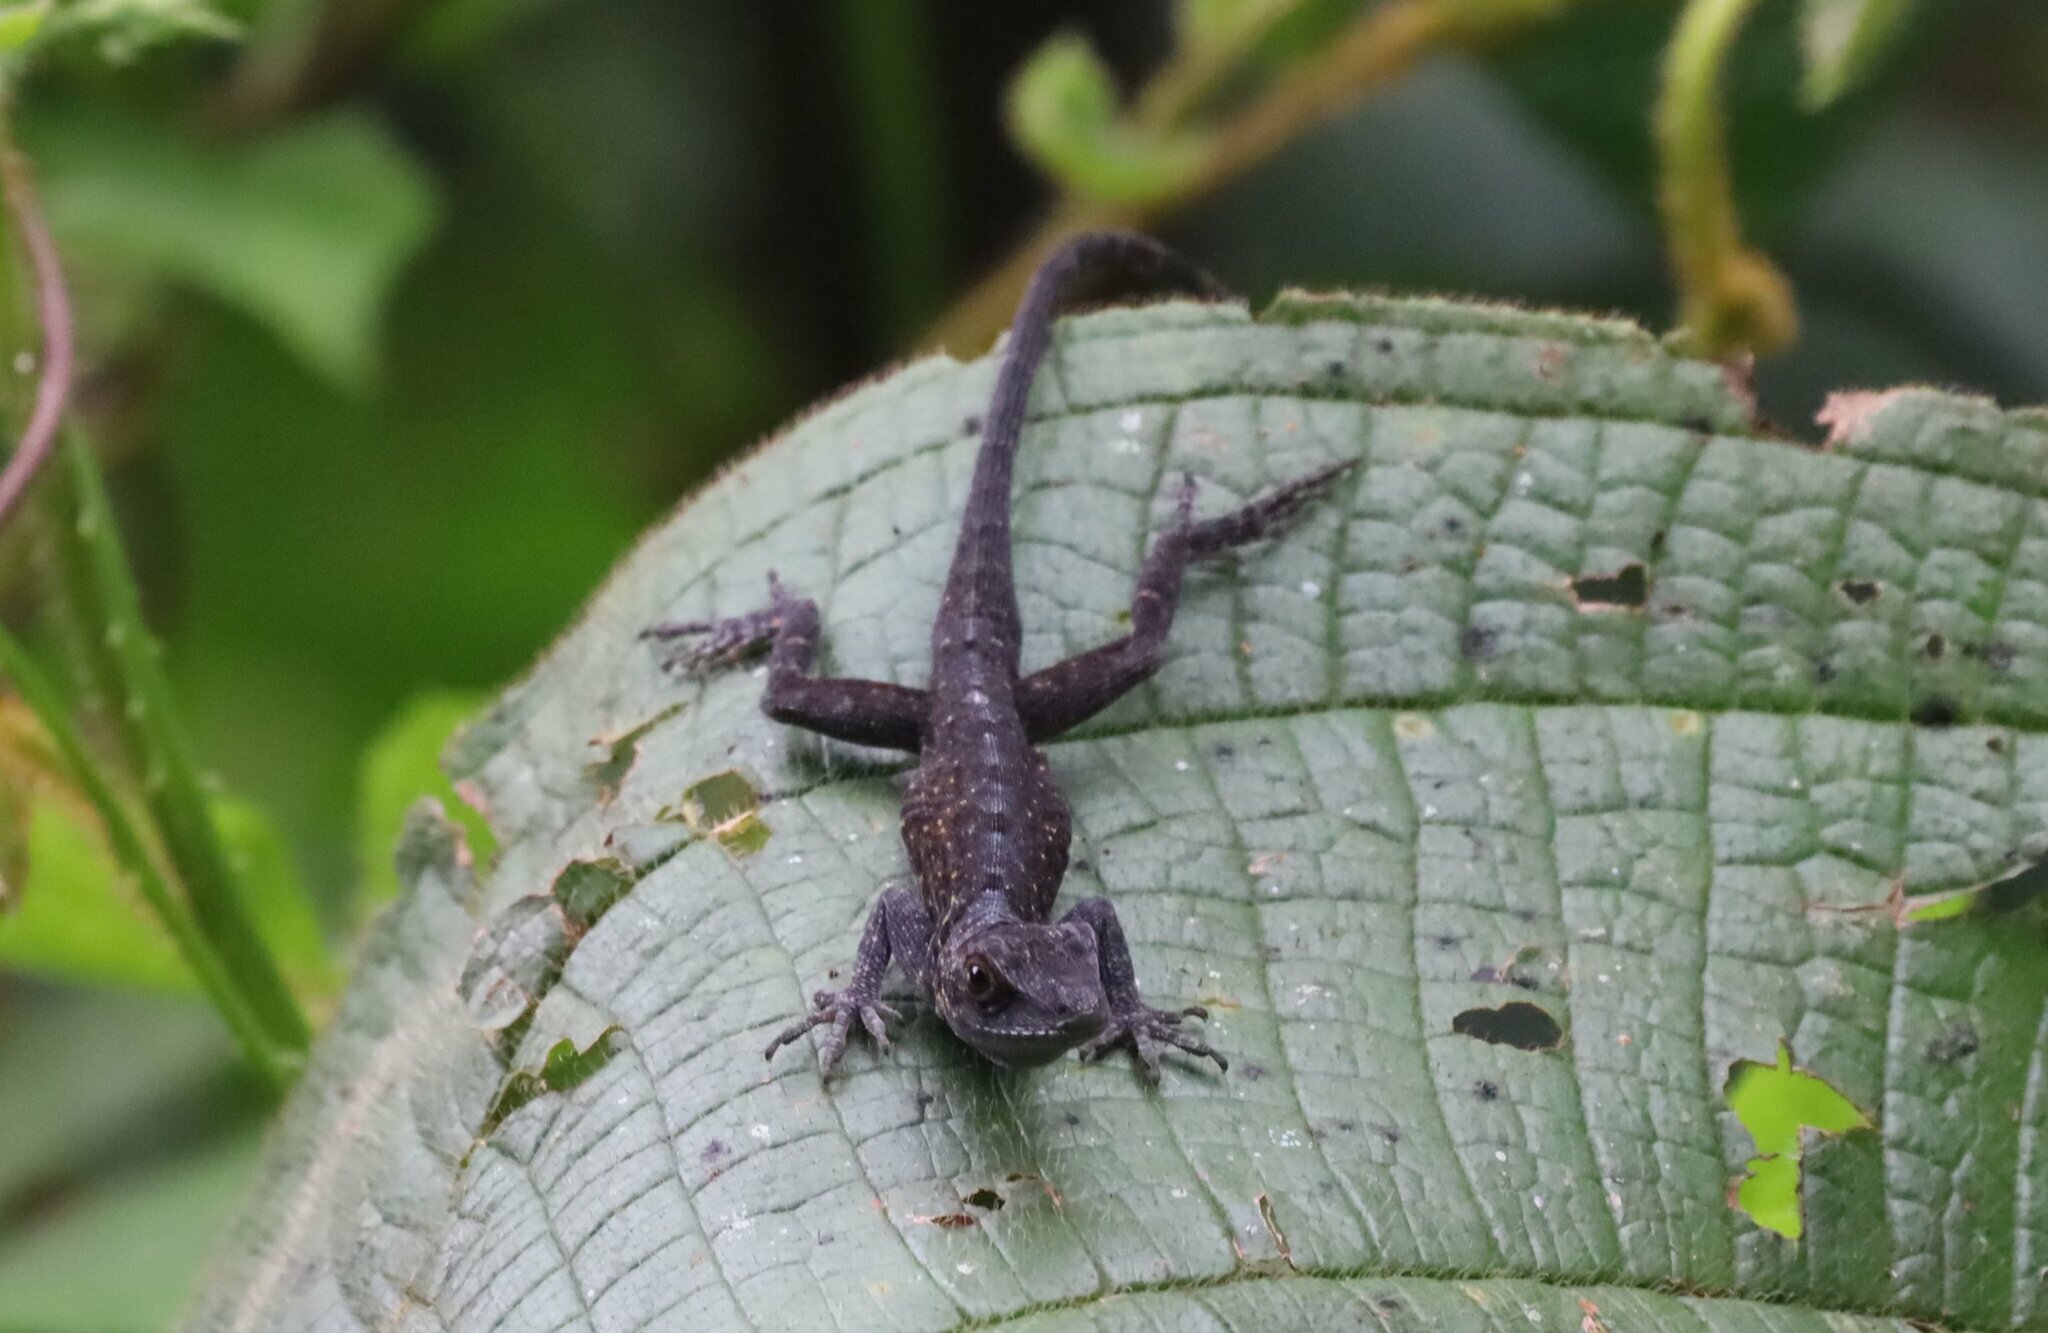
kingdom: Animalia
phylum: Chordata
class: Squamata
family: Dactyloidae
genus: Anolis
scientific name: Anolis mariarum
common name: Blemished anole
